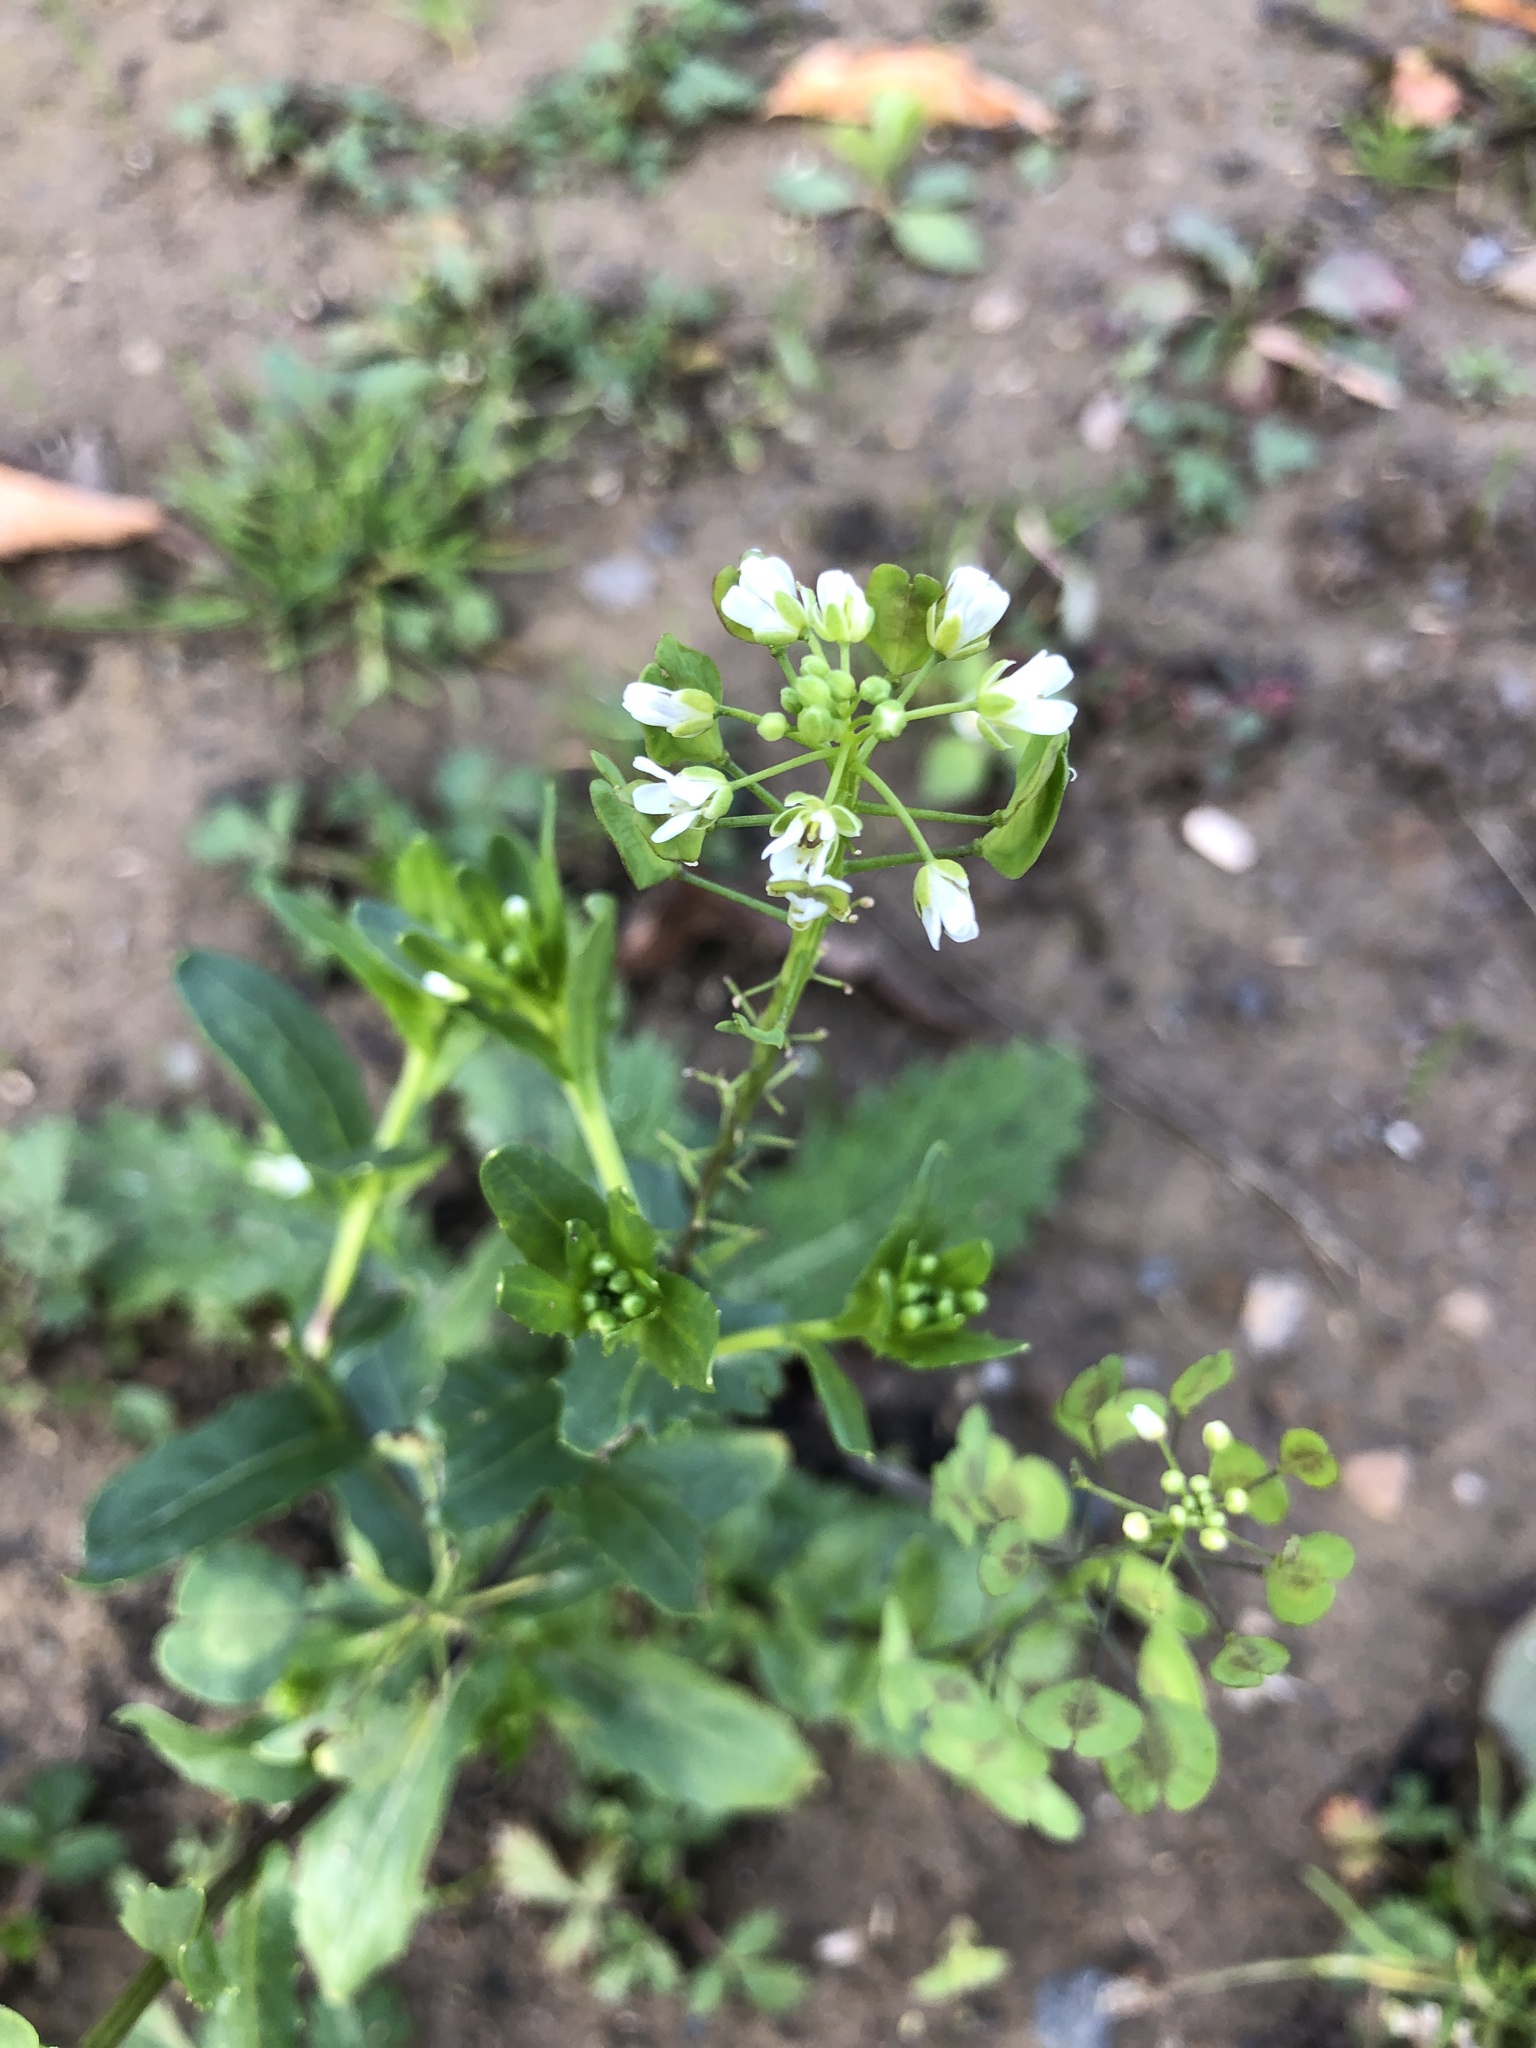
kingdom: Plantae
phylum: Tracheophyta
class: Magnoliopsida
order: Brassicales
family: Brassicaceae
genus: Thlaspi
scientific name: Thlaspi arvense
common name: Field pennycress
